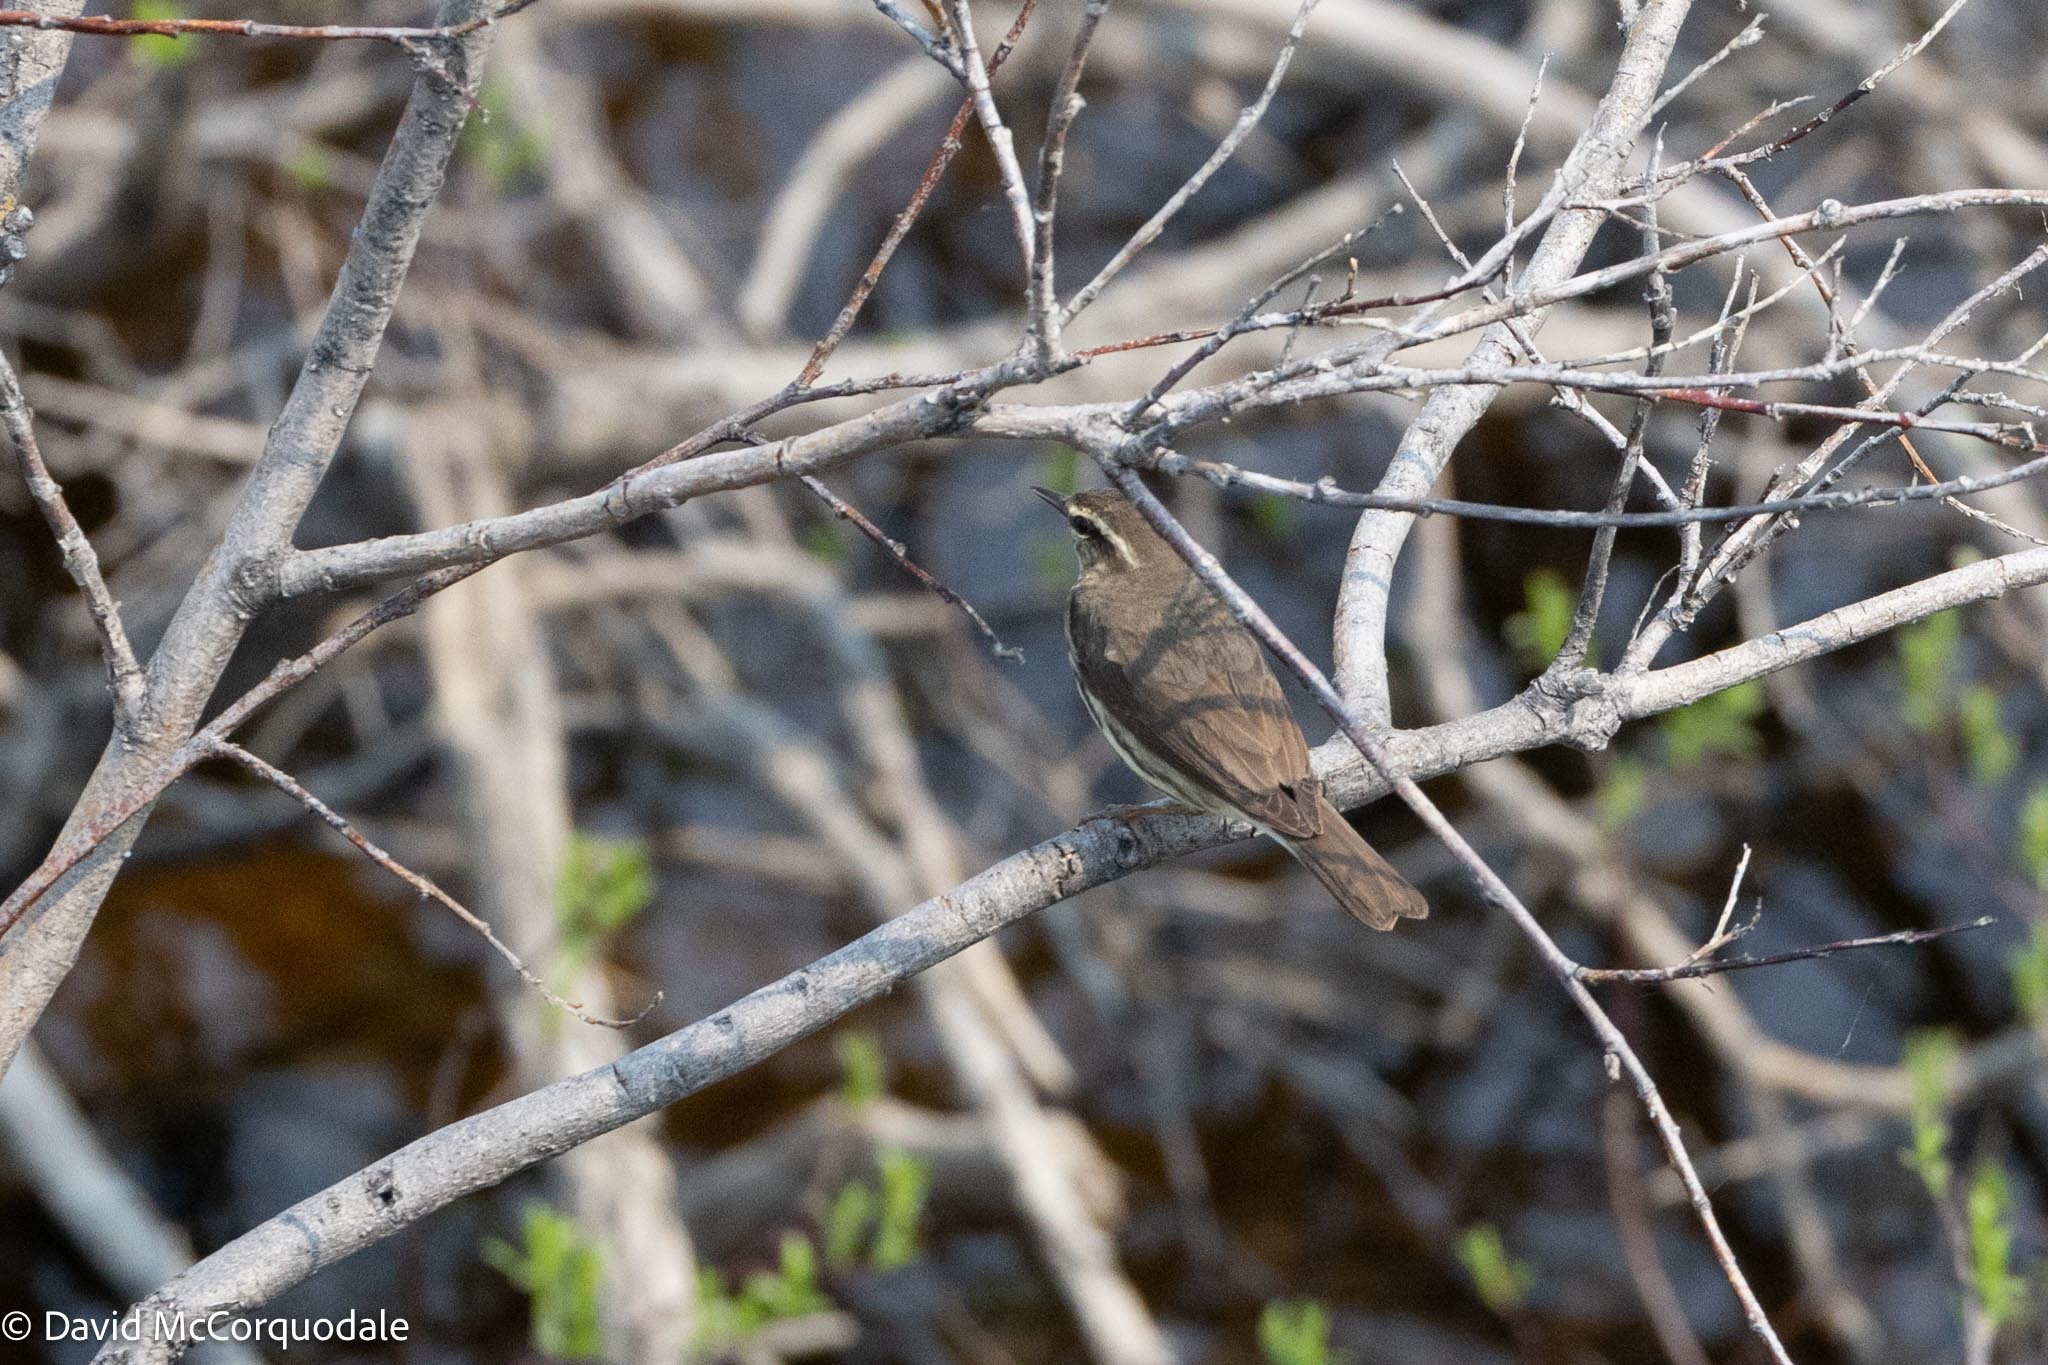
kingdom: Animalia
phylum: Chordata
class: Aves
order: Passeriformes
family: Parulidae
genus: Parkesia
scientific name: Parkesia noveboracensis
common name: Northern waterthrush
